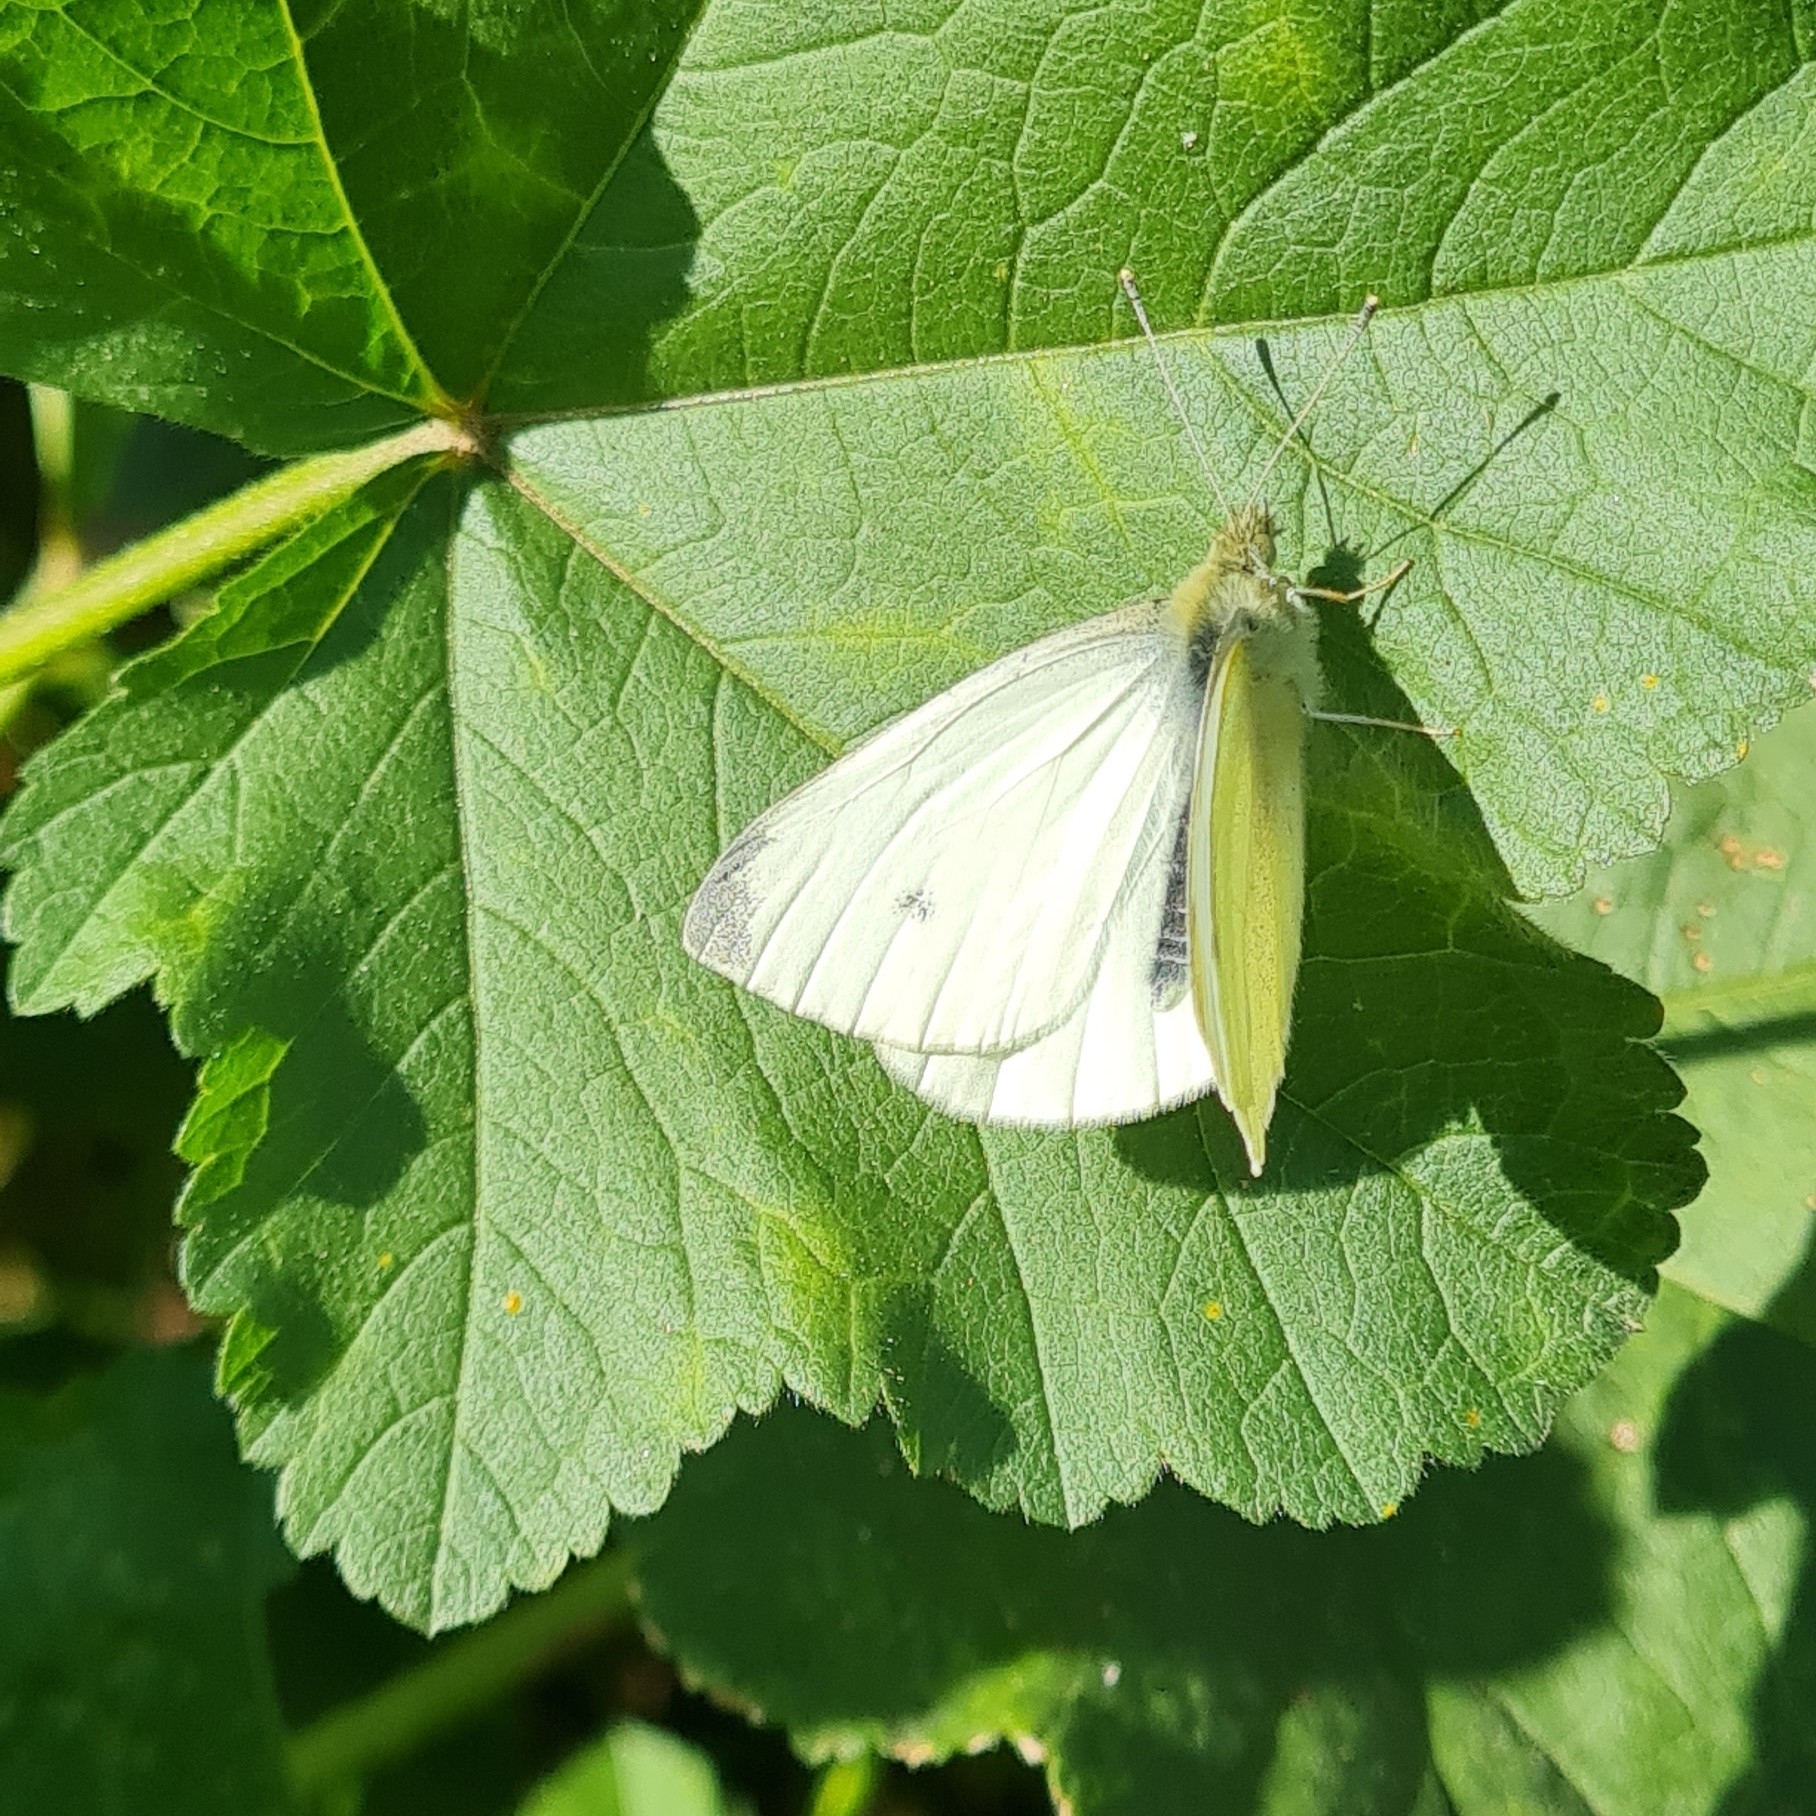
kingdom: Animalia
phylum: Arthropoda
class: Insecta
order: Lepidoptera
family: Pieridae
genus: Pieris
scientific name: Pieris rapae
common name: Small white
